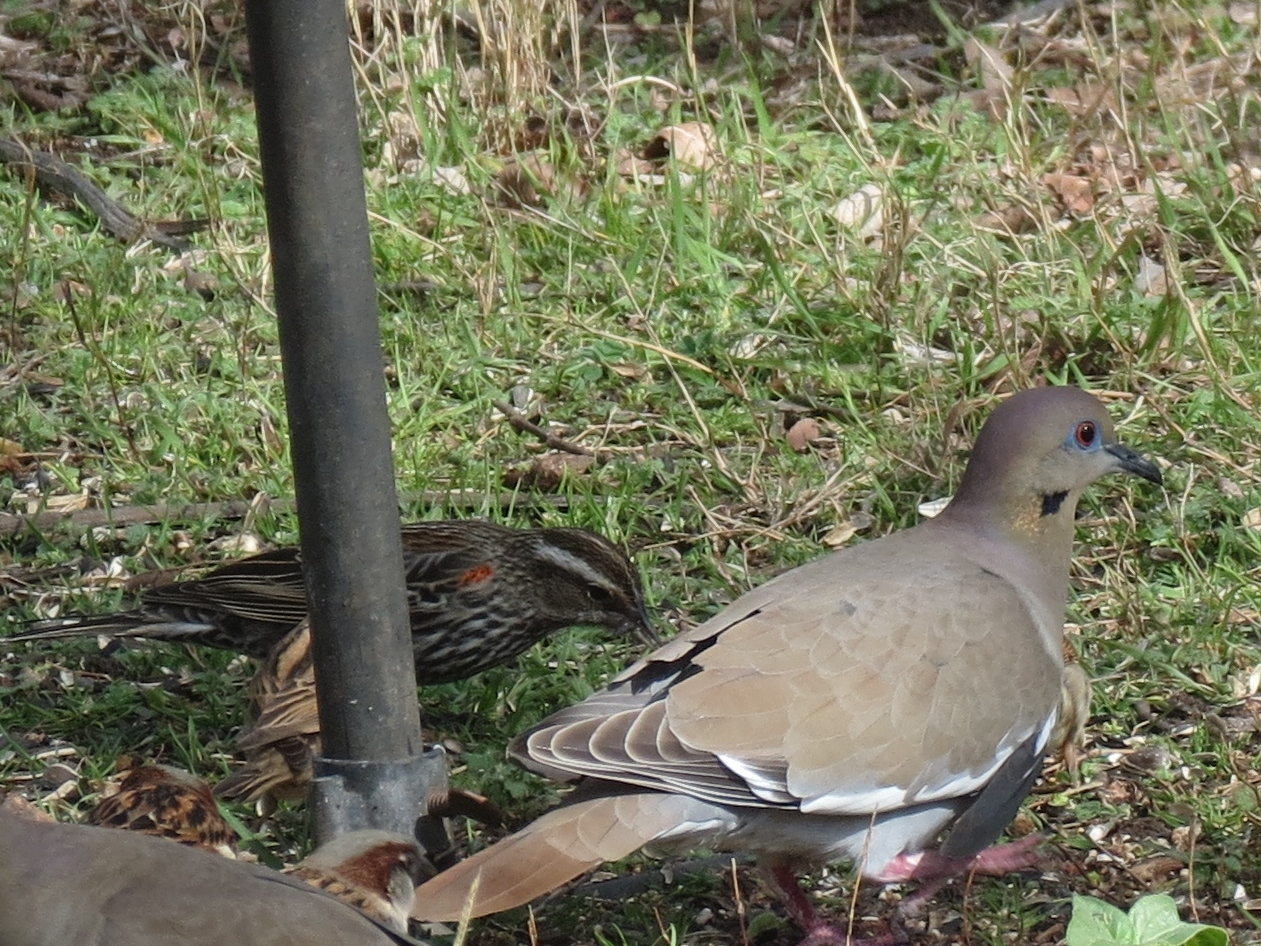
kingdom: Animalia
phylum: Chordata
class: Aves
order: Columbiformes
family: Columbidae
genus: Zenaida
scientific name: Zenaida asiatica
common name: White-winged dove
